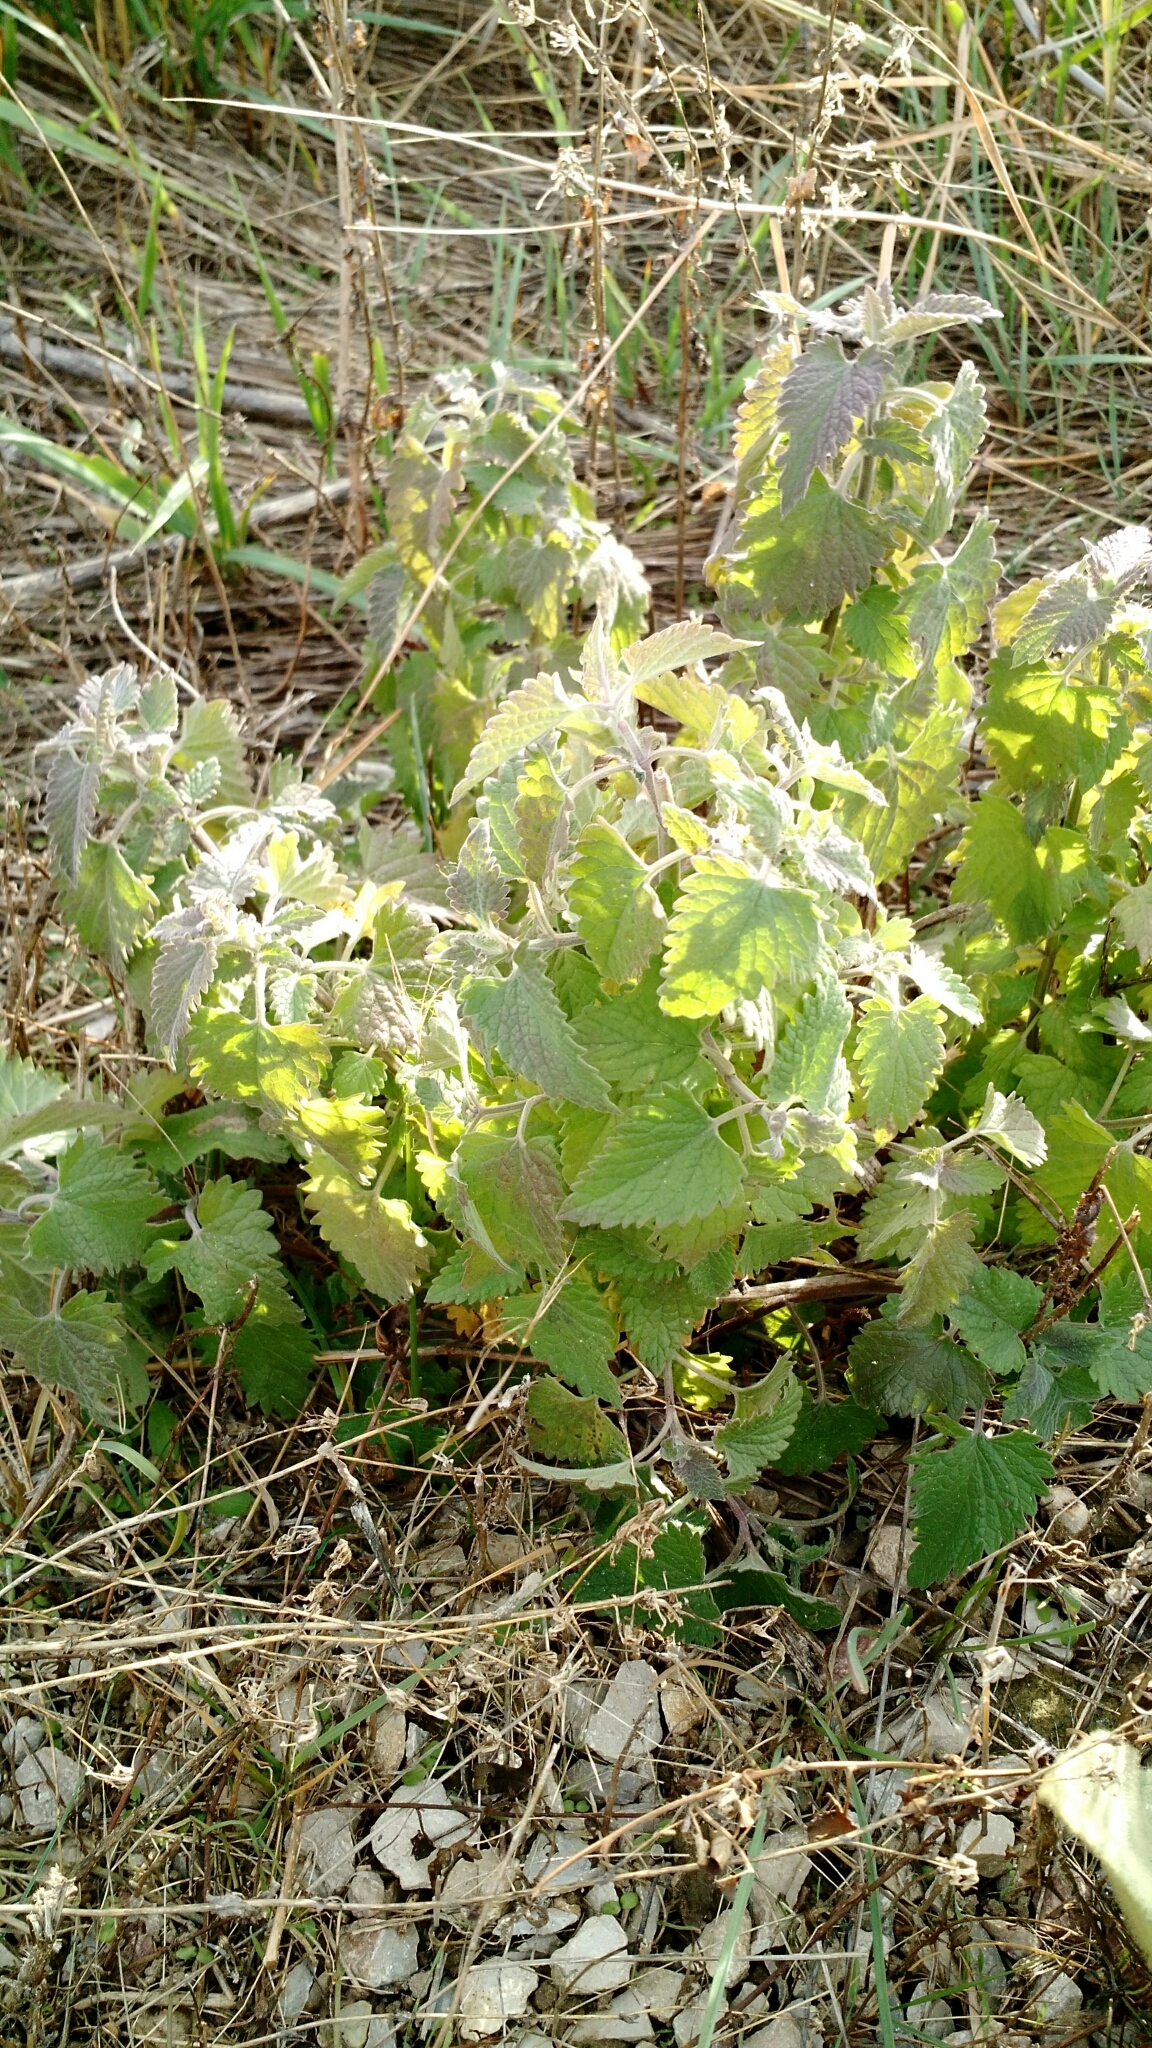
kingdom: Plantae
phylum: Tracheophyta
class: Magnoliopsida
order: Lamiales
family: Lamiaceae
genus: Nepeta
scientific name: Nepeta cataria
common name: Catnip
